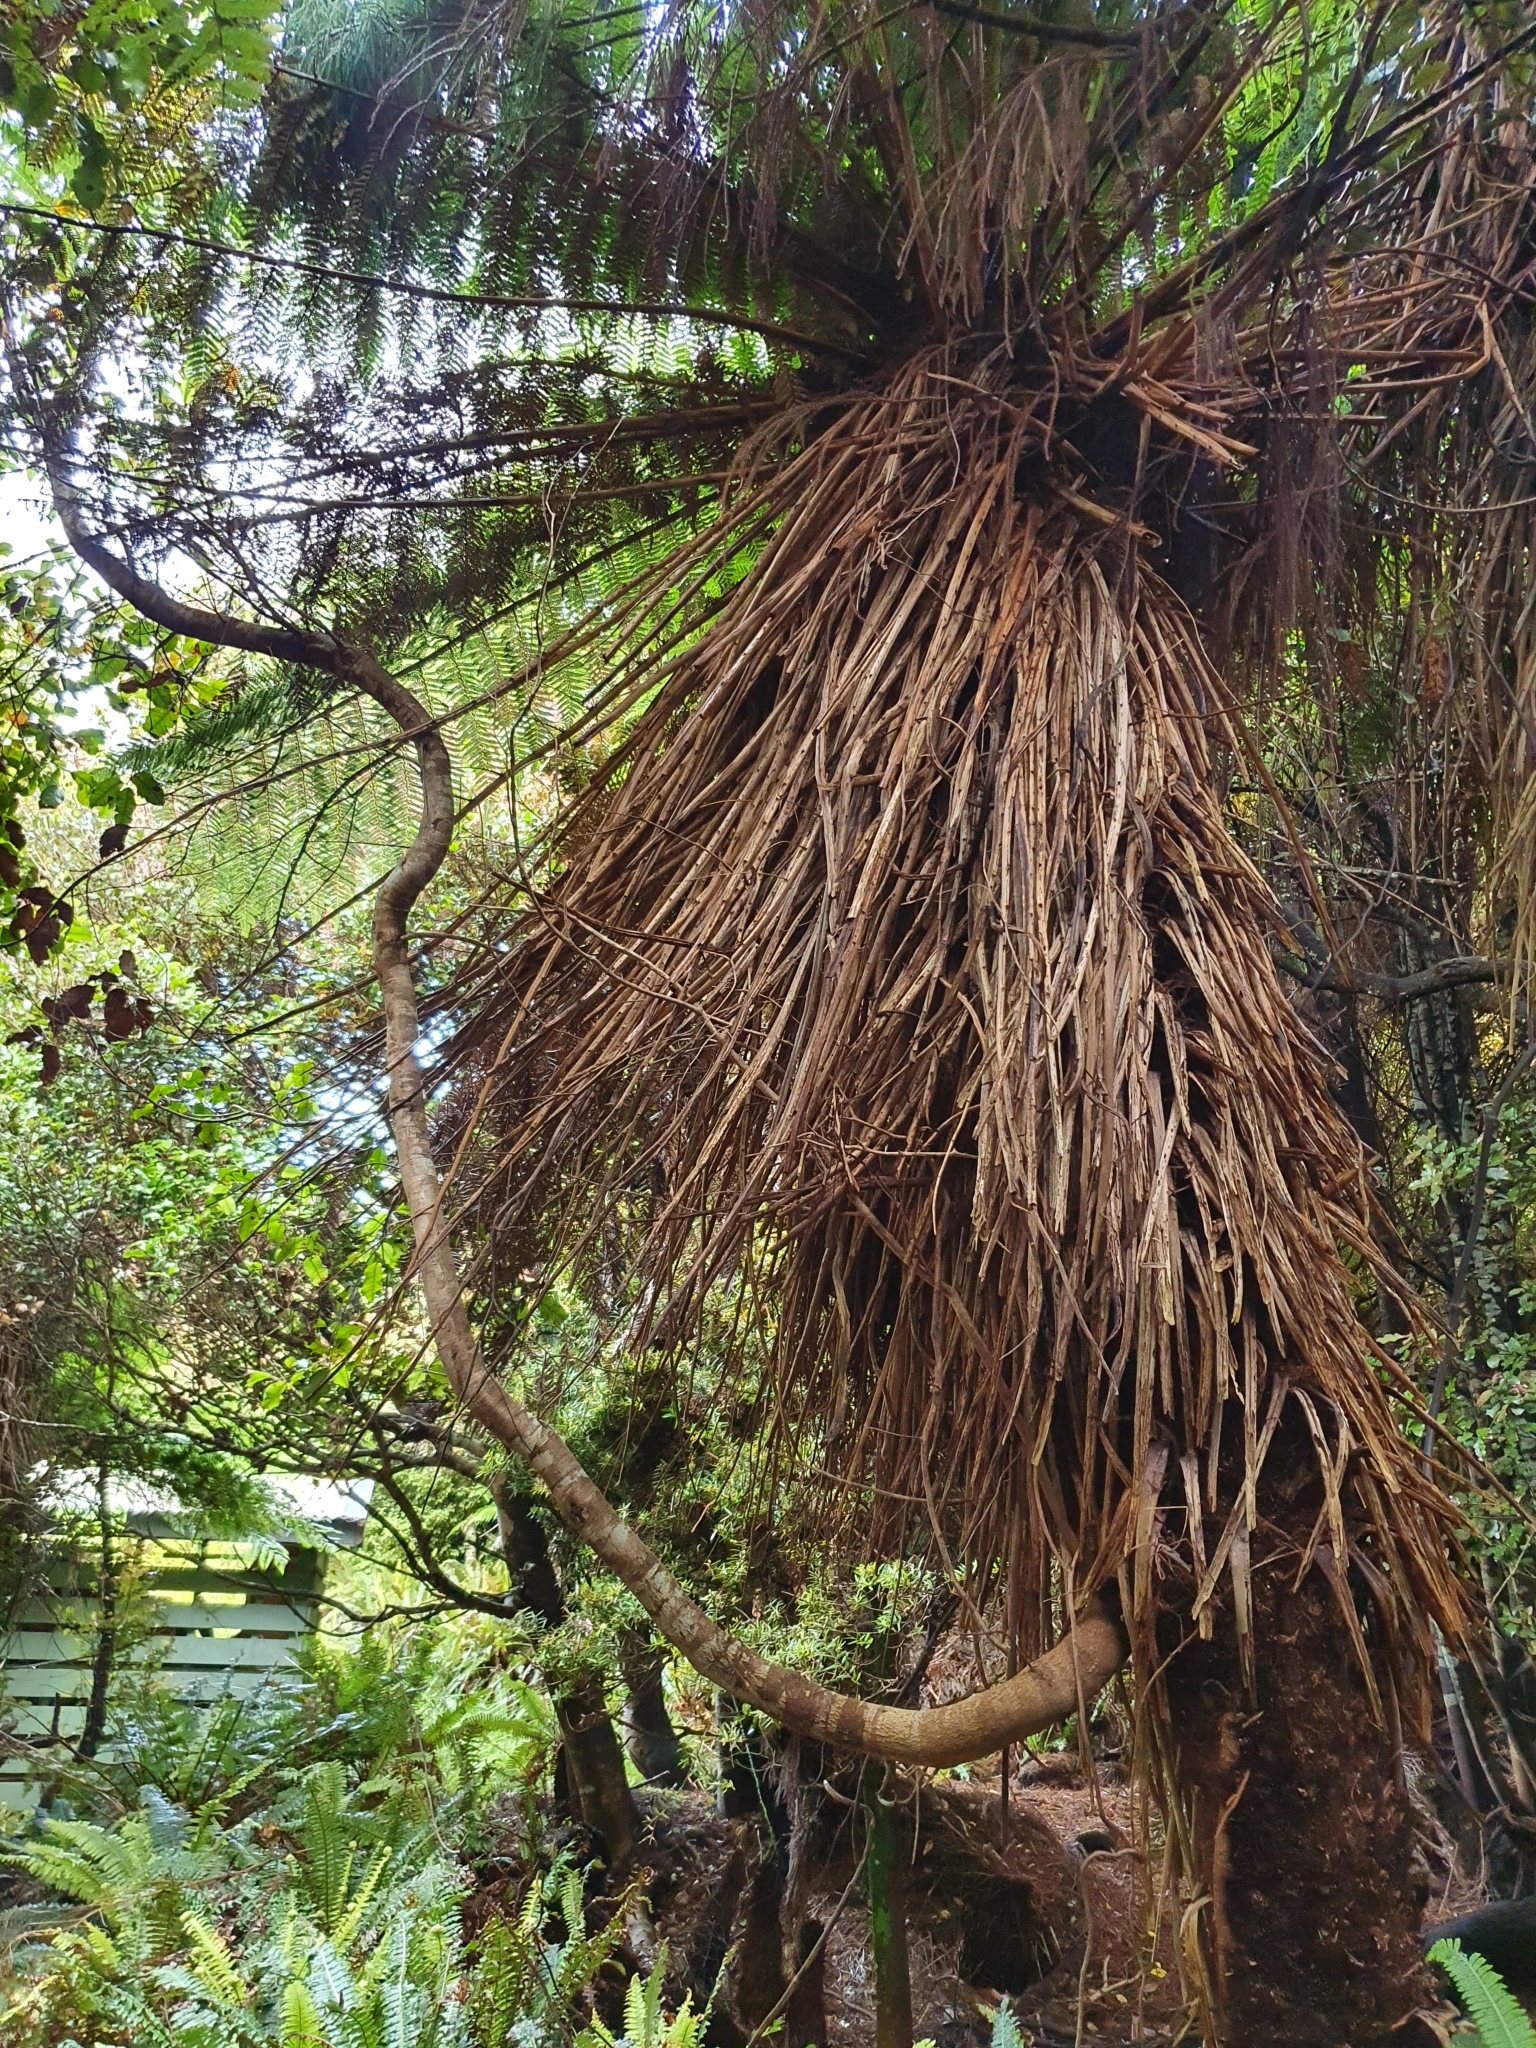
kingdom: Plantae
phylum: Tracheophyta
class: Magnoliopsida
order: Oxalidales
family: Cunoniaceae
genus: Pterophylla
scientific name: Pterophylla racemosa
